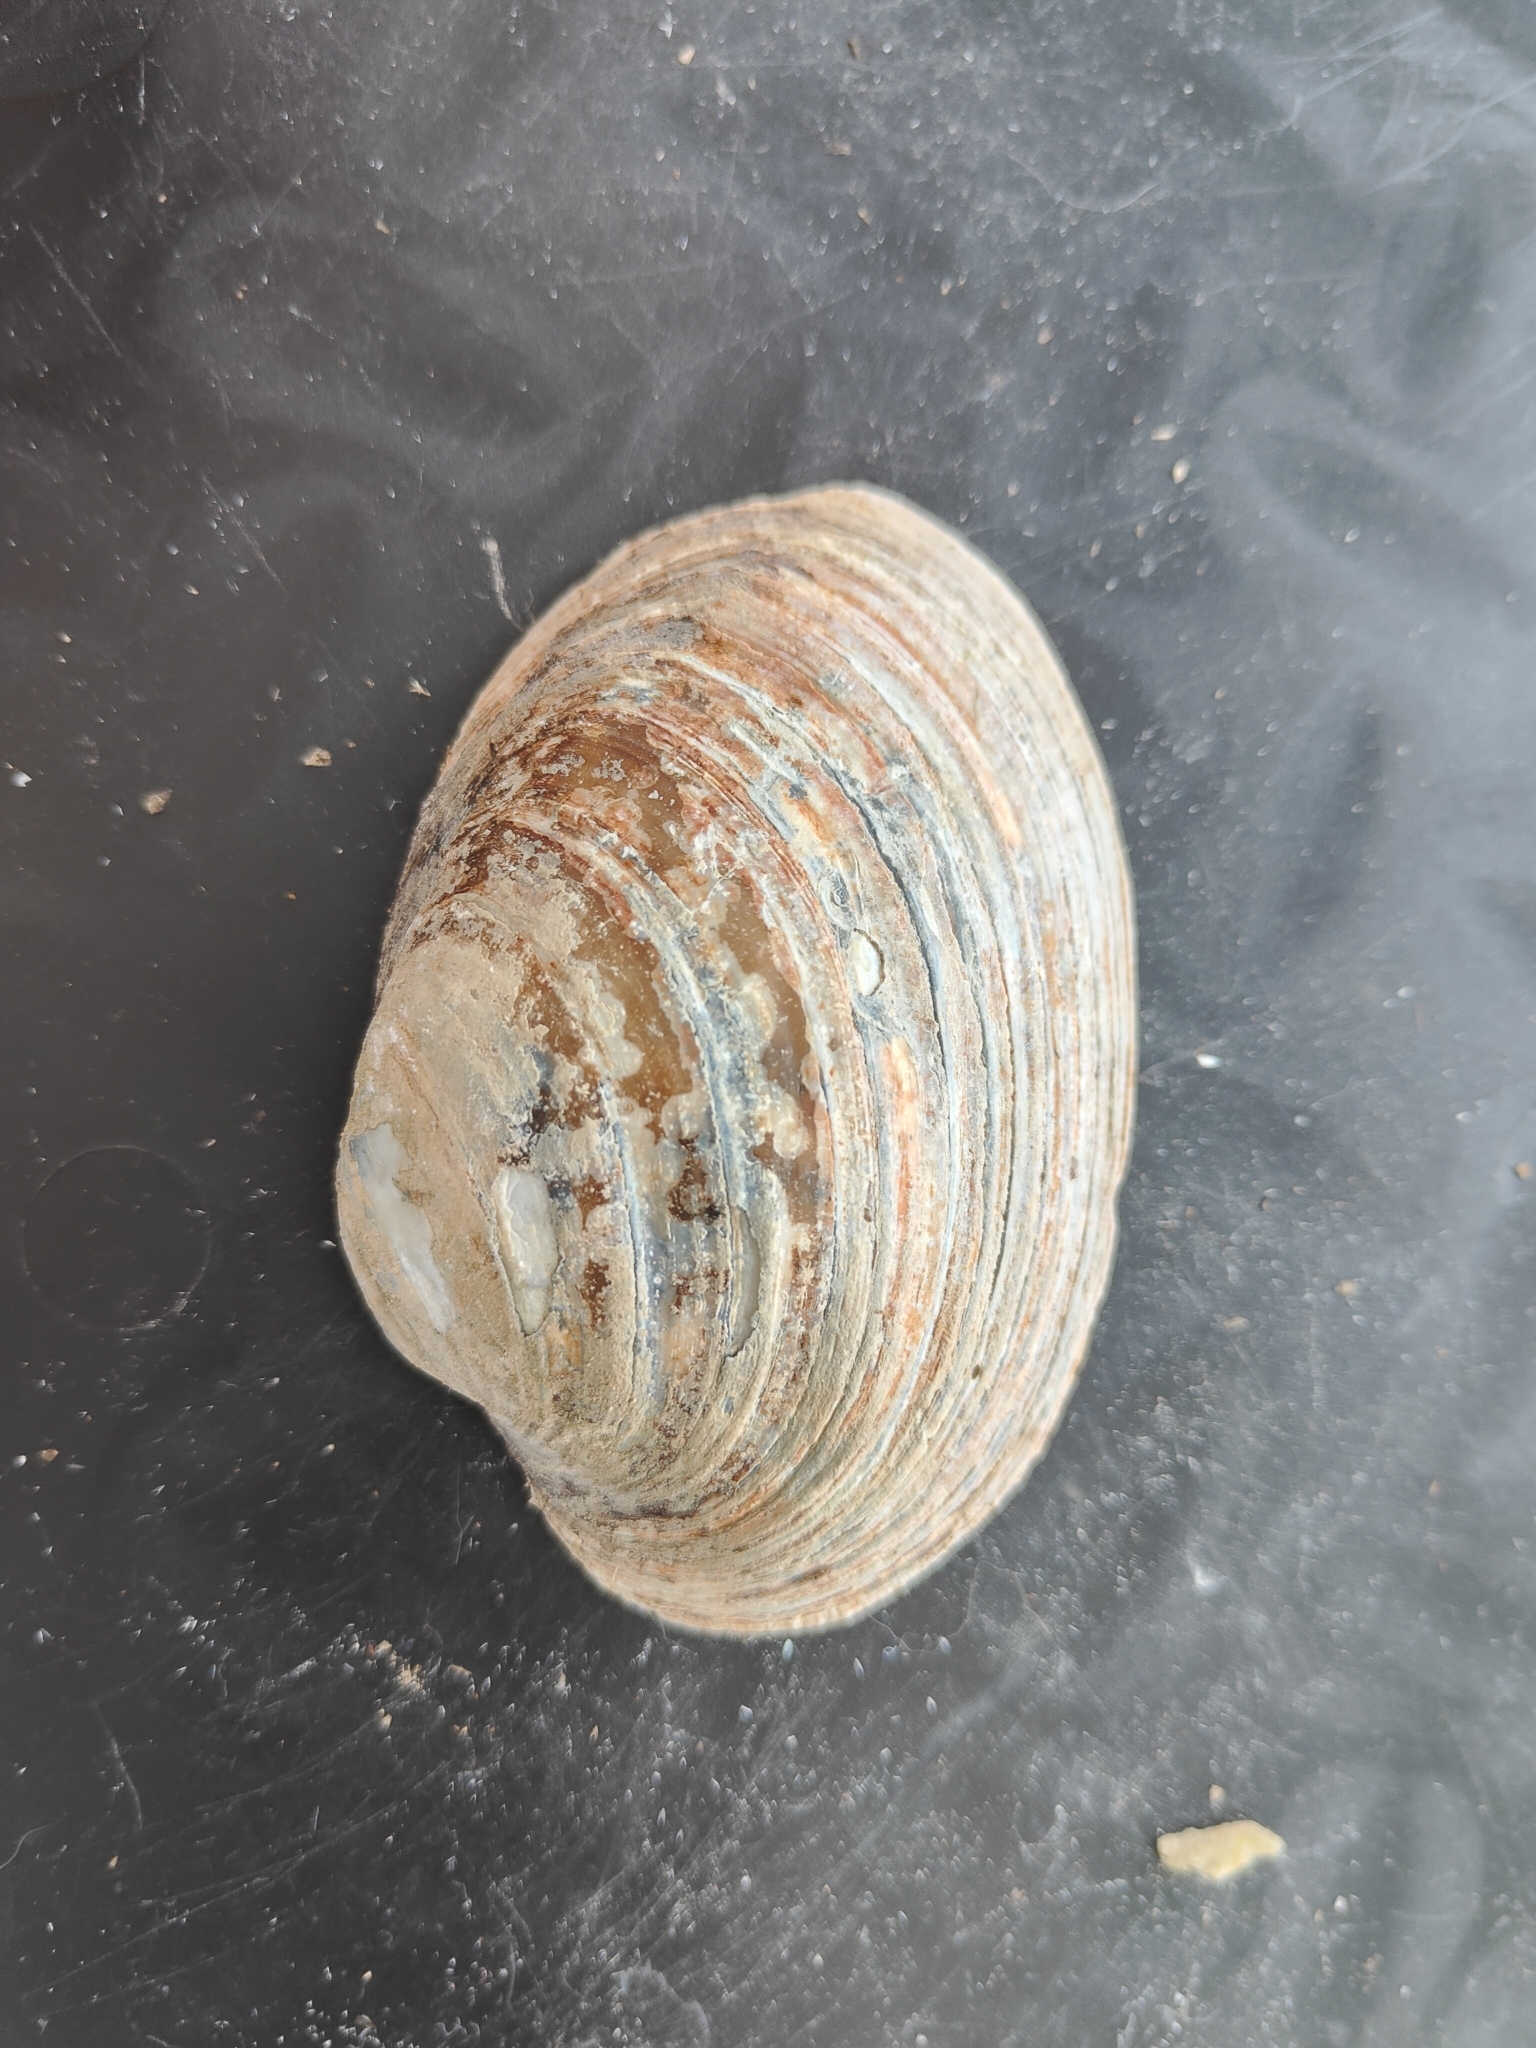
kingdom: Animalia
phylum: Mollusca
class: Bivalvia
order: Unionida
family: Unionidae
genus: Lampsilis
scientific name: Lampsilis cardium
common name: Plain pocketbook
